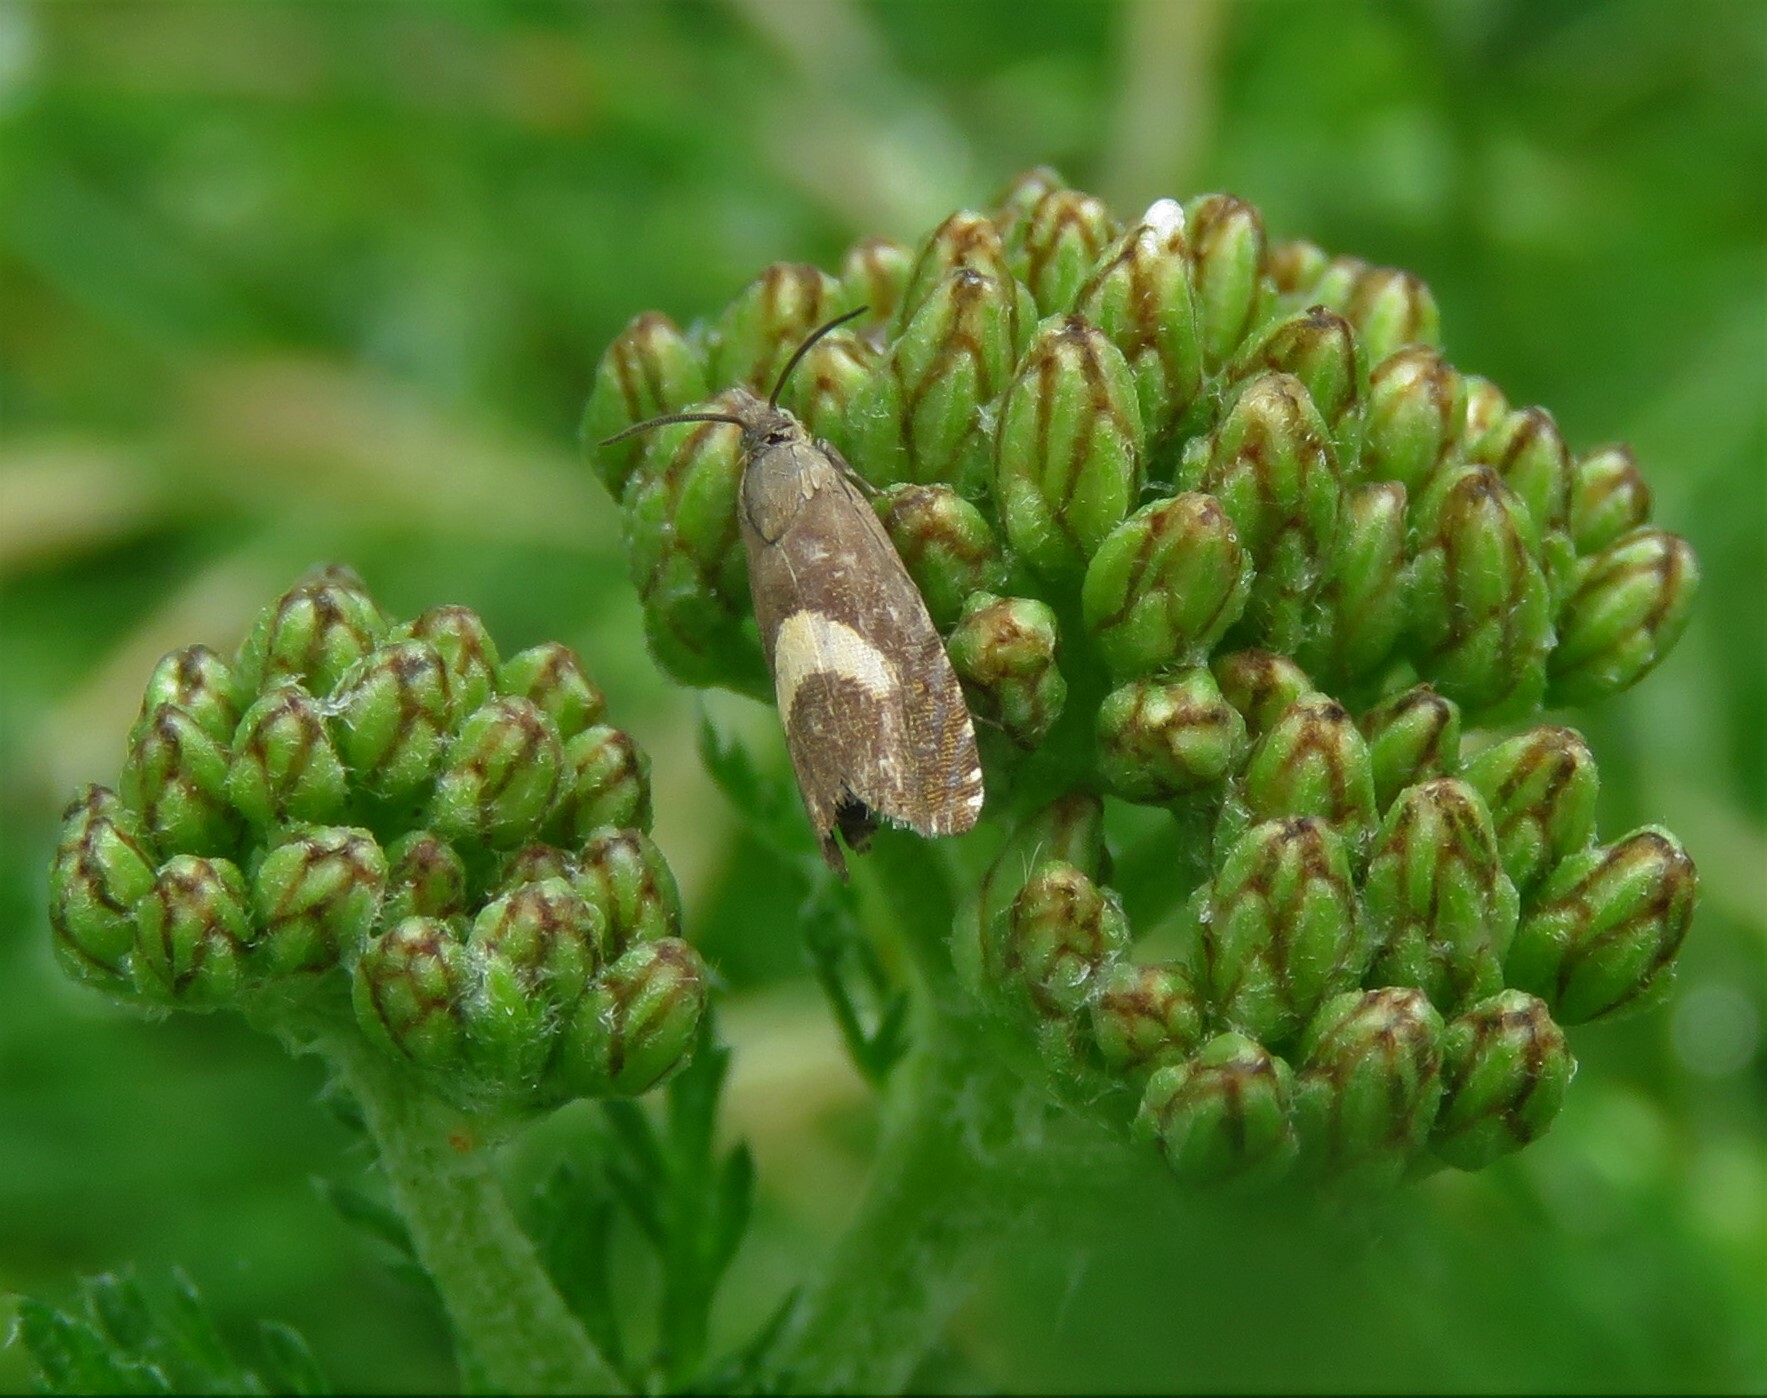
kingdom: Animalia
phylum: Arthropoda
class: Insecta
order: Lepidoptera
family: Tortricidae
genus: Dichrorampha
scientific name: Dichrorampha petiverella
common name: Common drill
